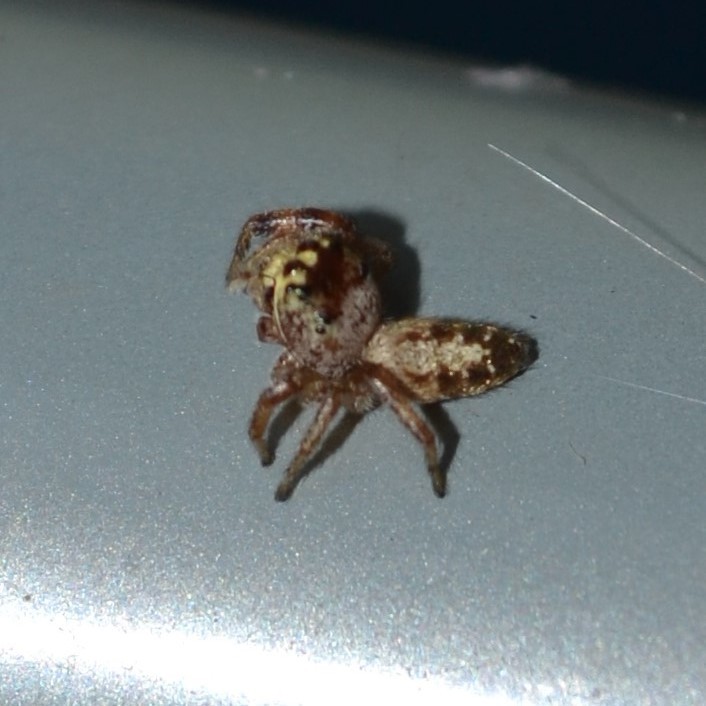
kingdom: Animalia
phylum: Arthropoda
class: Arachnida
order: Araneae
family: Salticidae
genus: Eris
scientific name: Eris floridana
